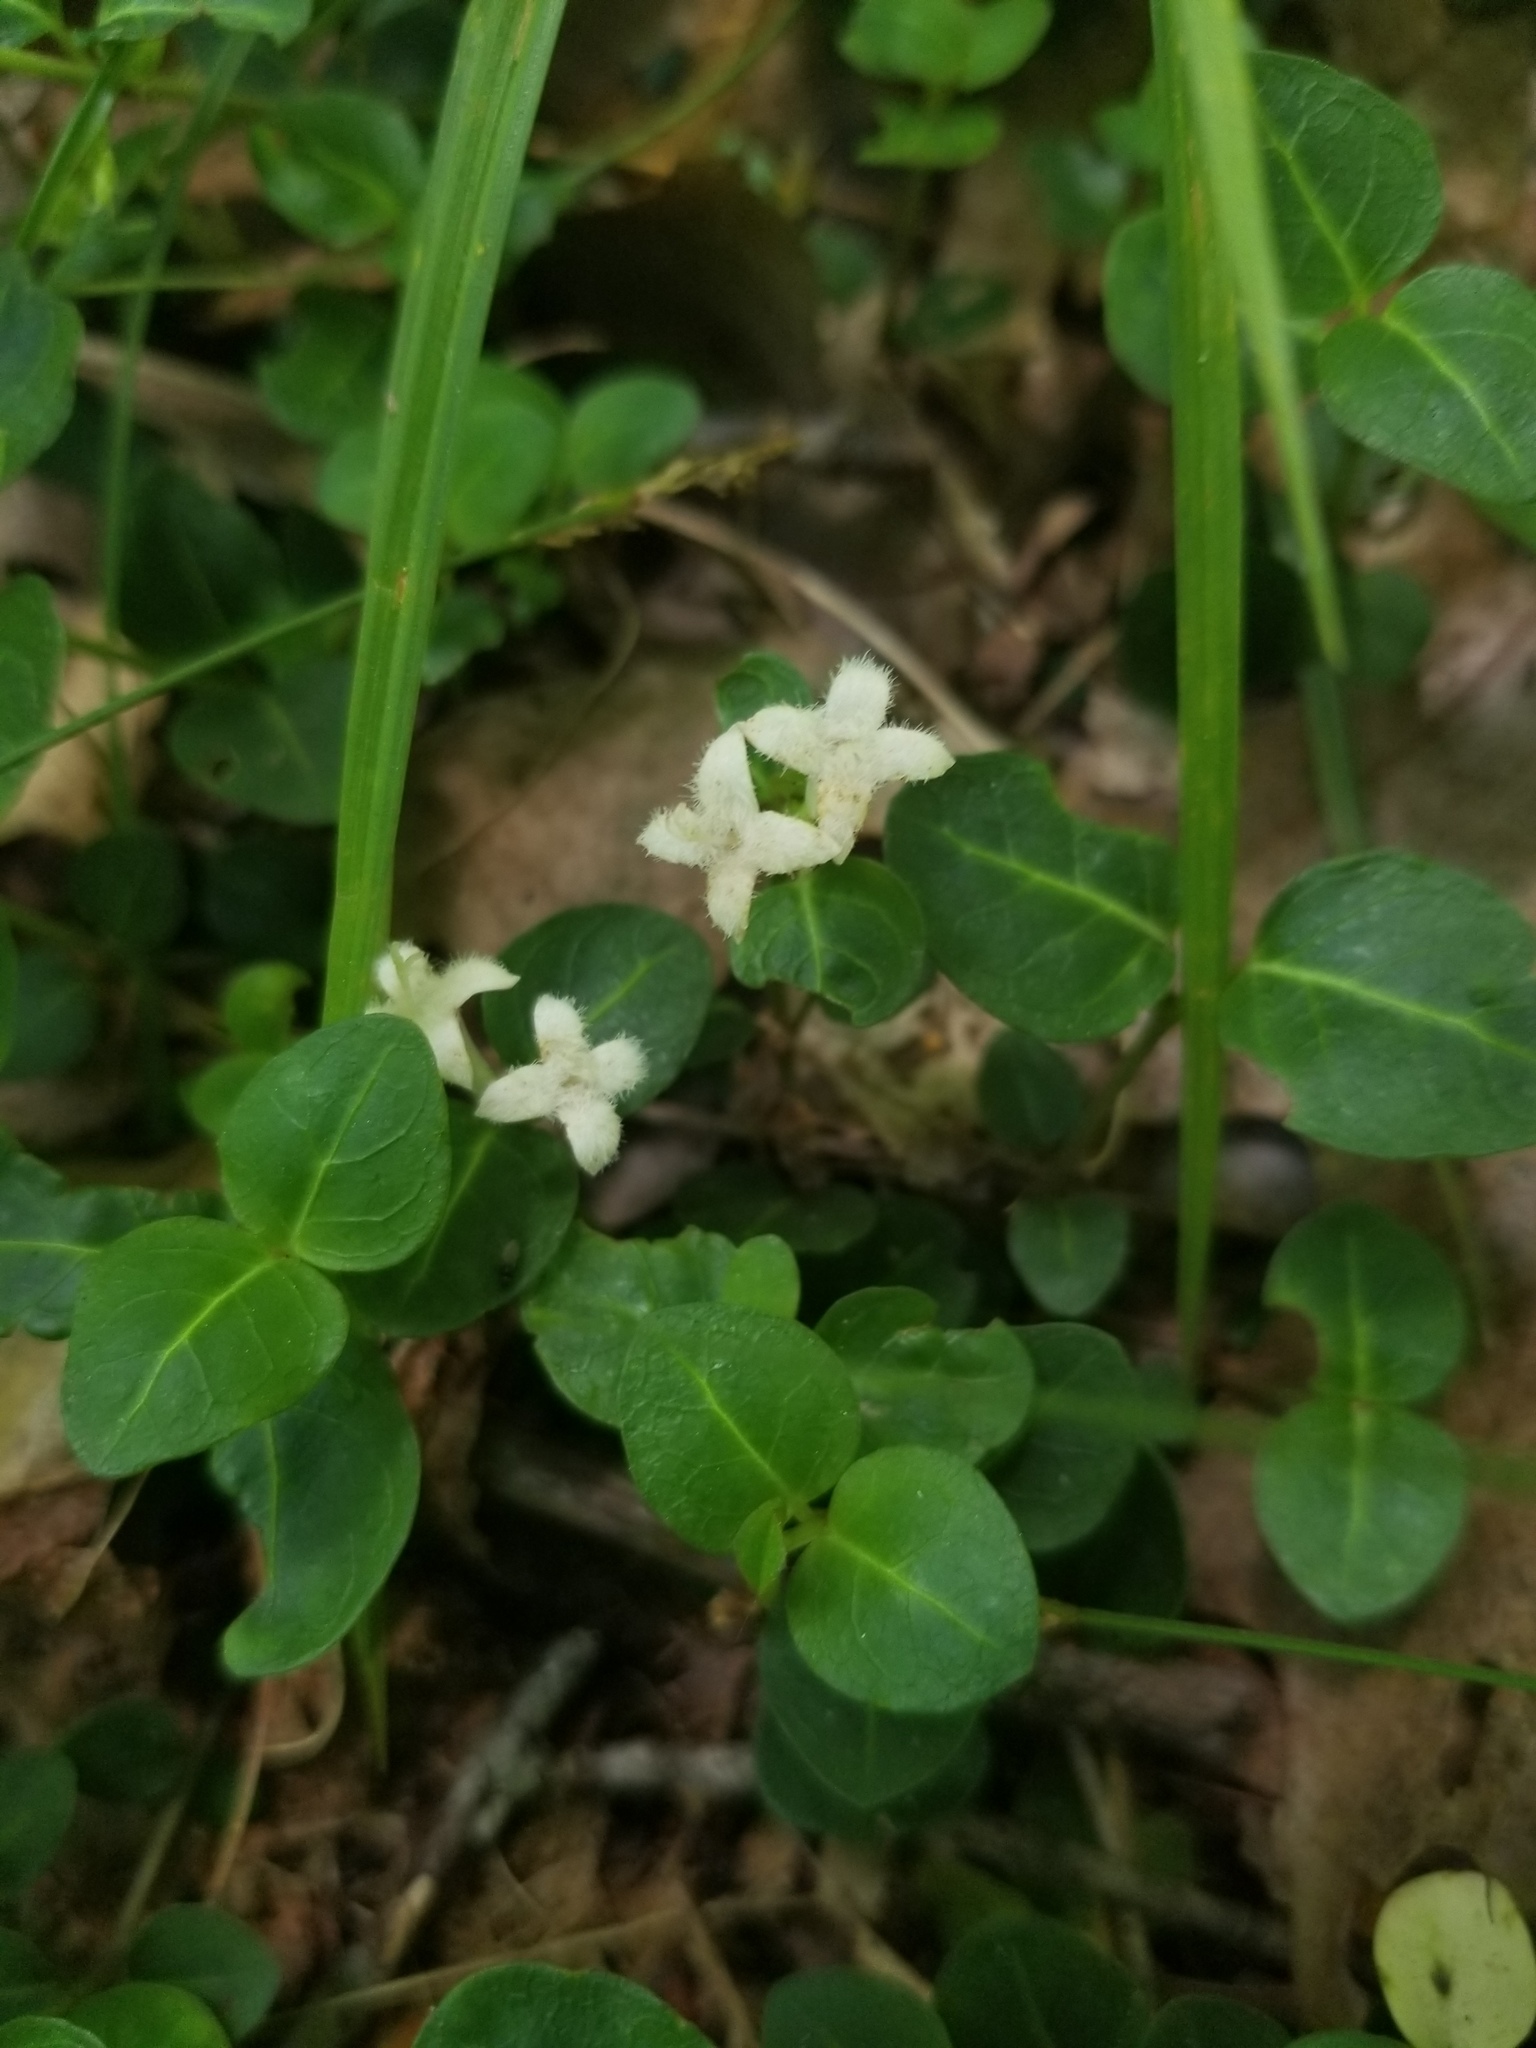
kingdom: Plantae
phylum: Tracheophyta
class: Magnoliopsida
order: Gentianales
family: Rubiaceae
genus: Mitchella
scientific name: Mitchella repens
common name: Partridge-berry
